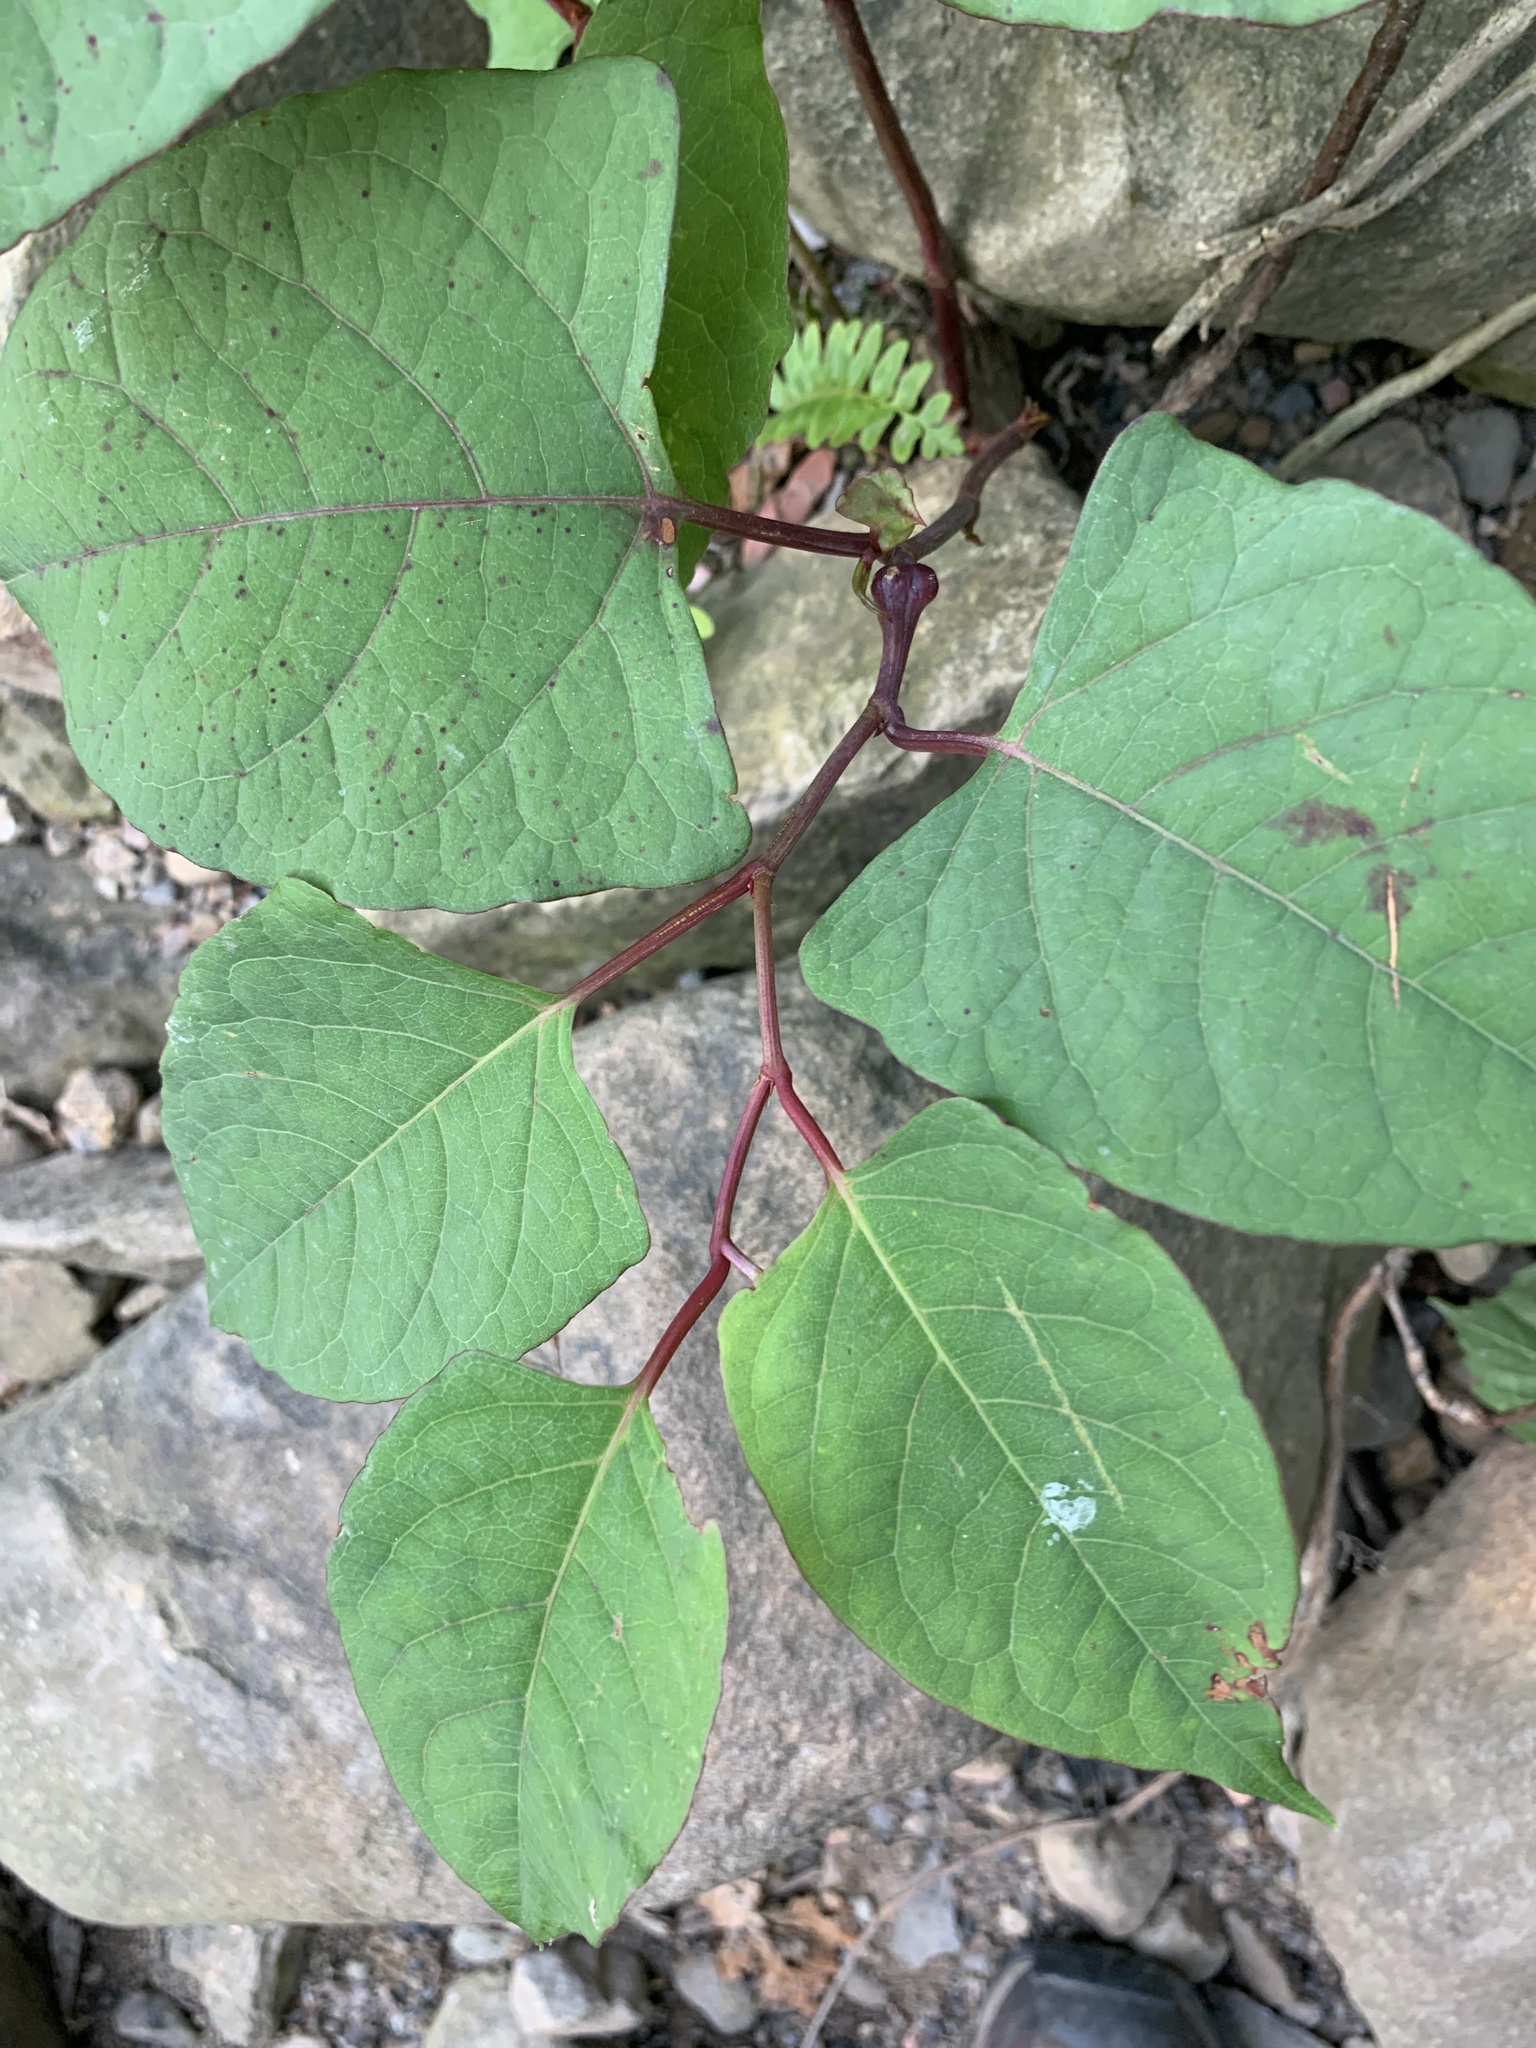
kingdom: Plantae
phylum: Tracheophyta
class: Magnoliopsida
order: Caryophyllales
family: Polygonaceae
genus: Reynoutria
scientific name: Reynoutria japonica
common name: Japanese knotweed
